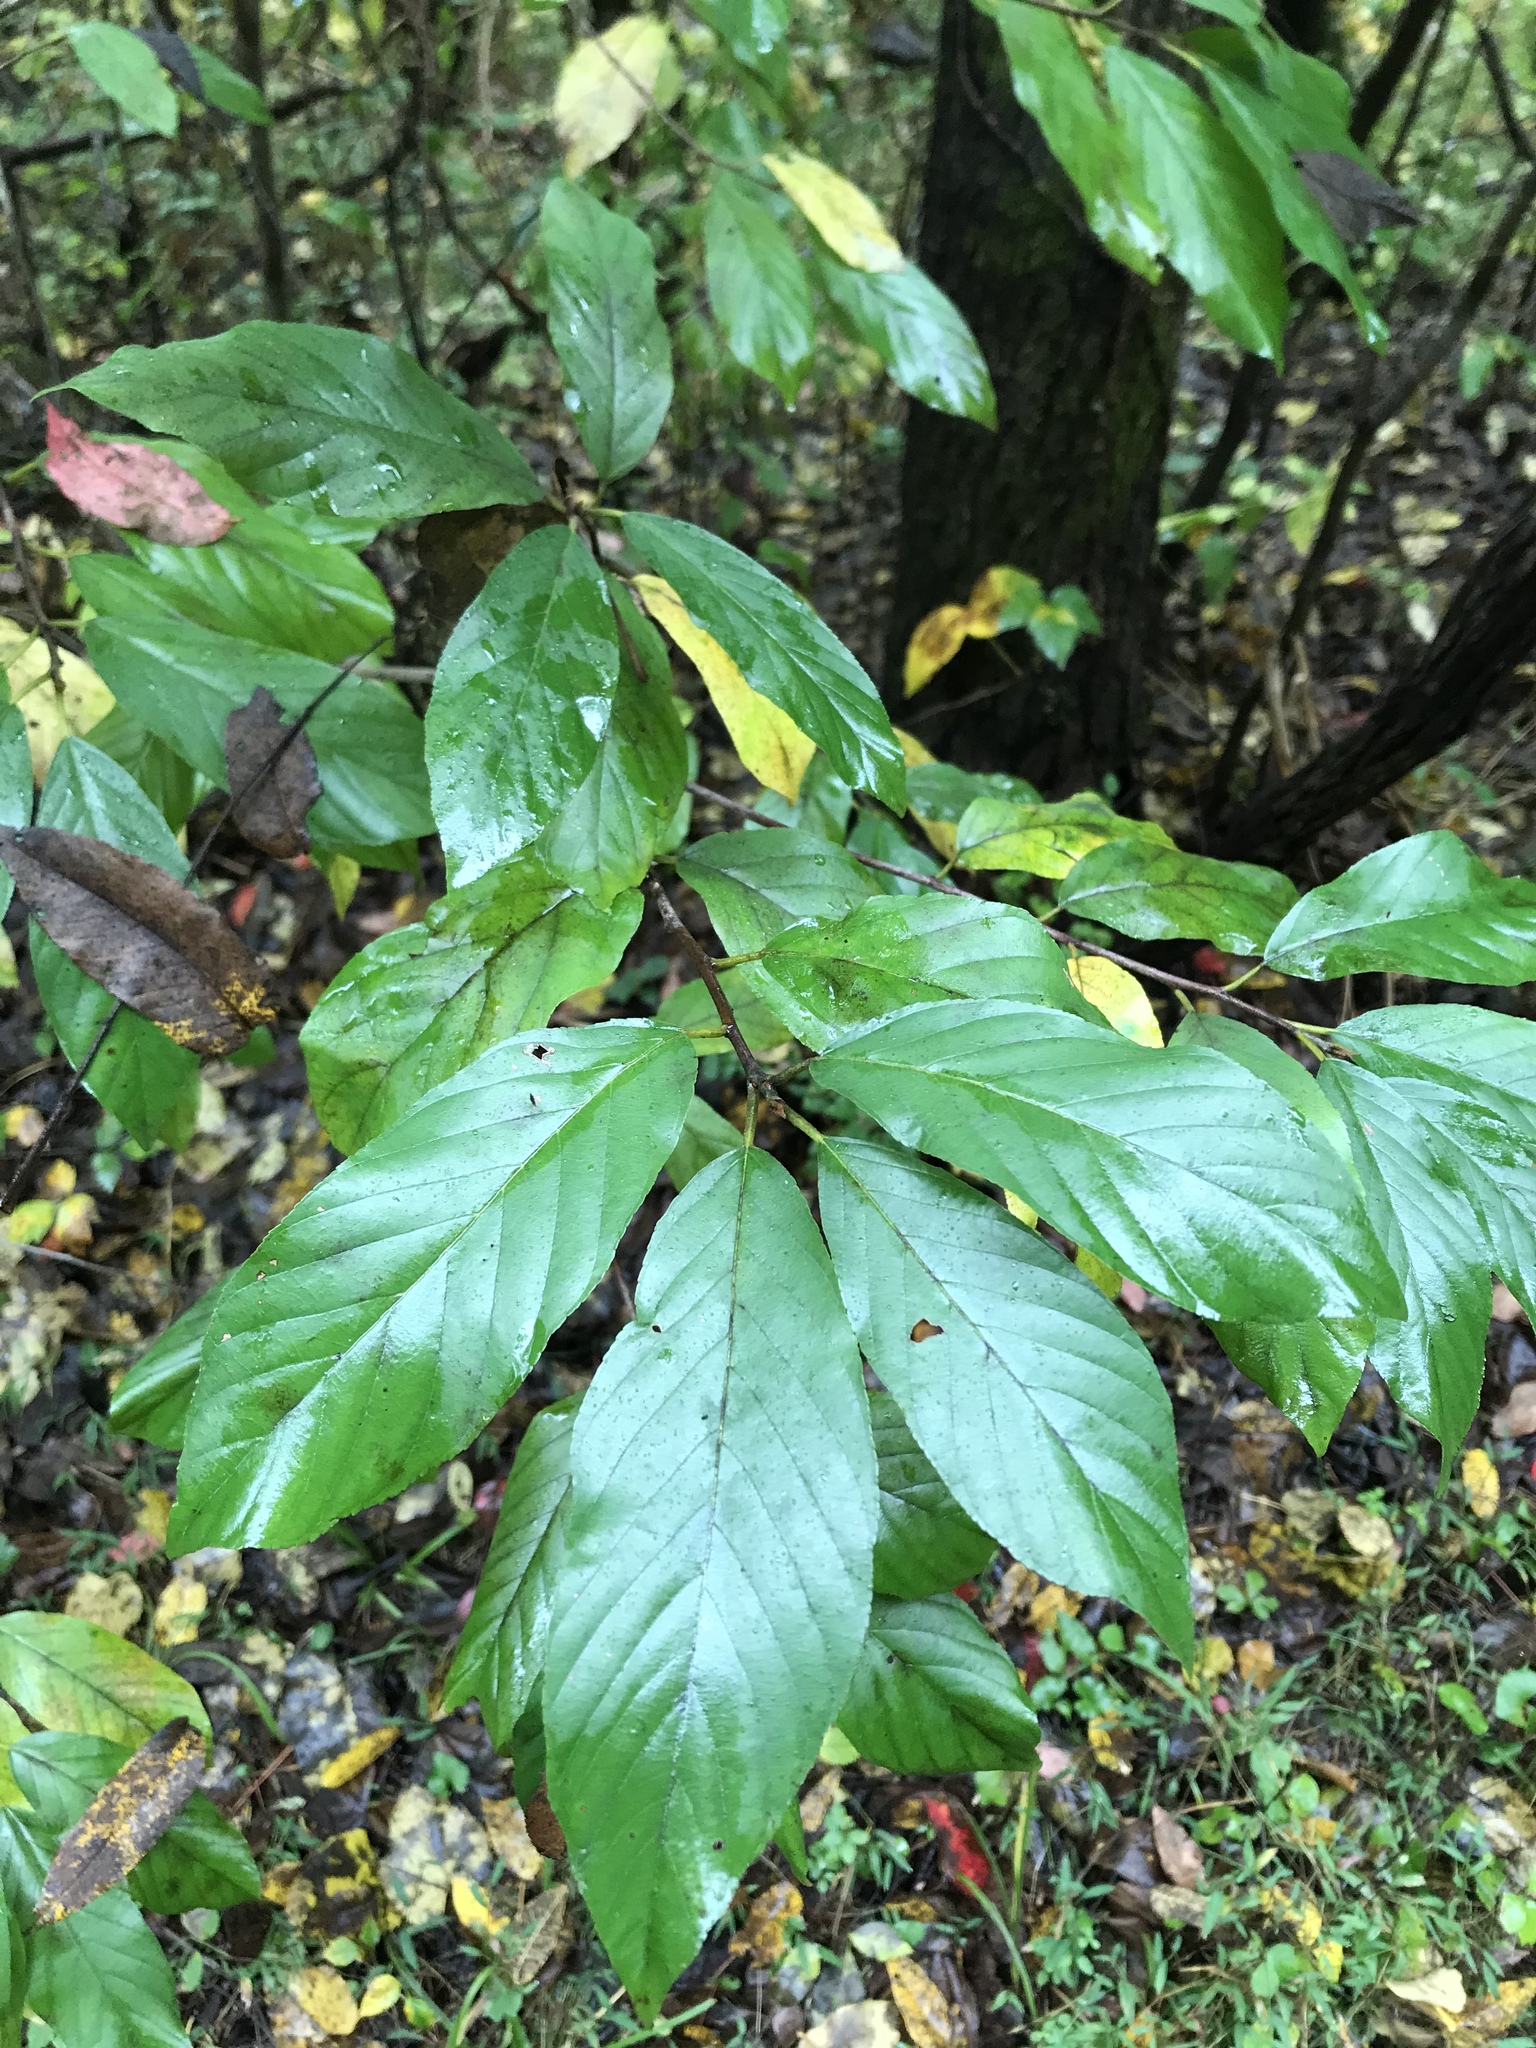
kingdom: Plantae
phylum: Tracheophyta
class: Magnoliopsida
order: Rosales
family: Rhamnaceae
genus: Frangula
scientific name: Frangula caroliniana
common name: Carolina buckthorn
